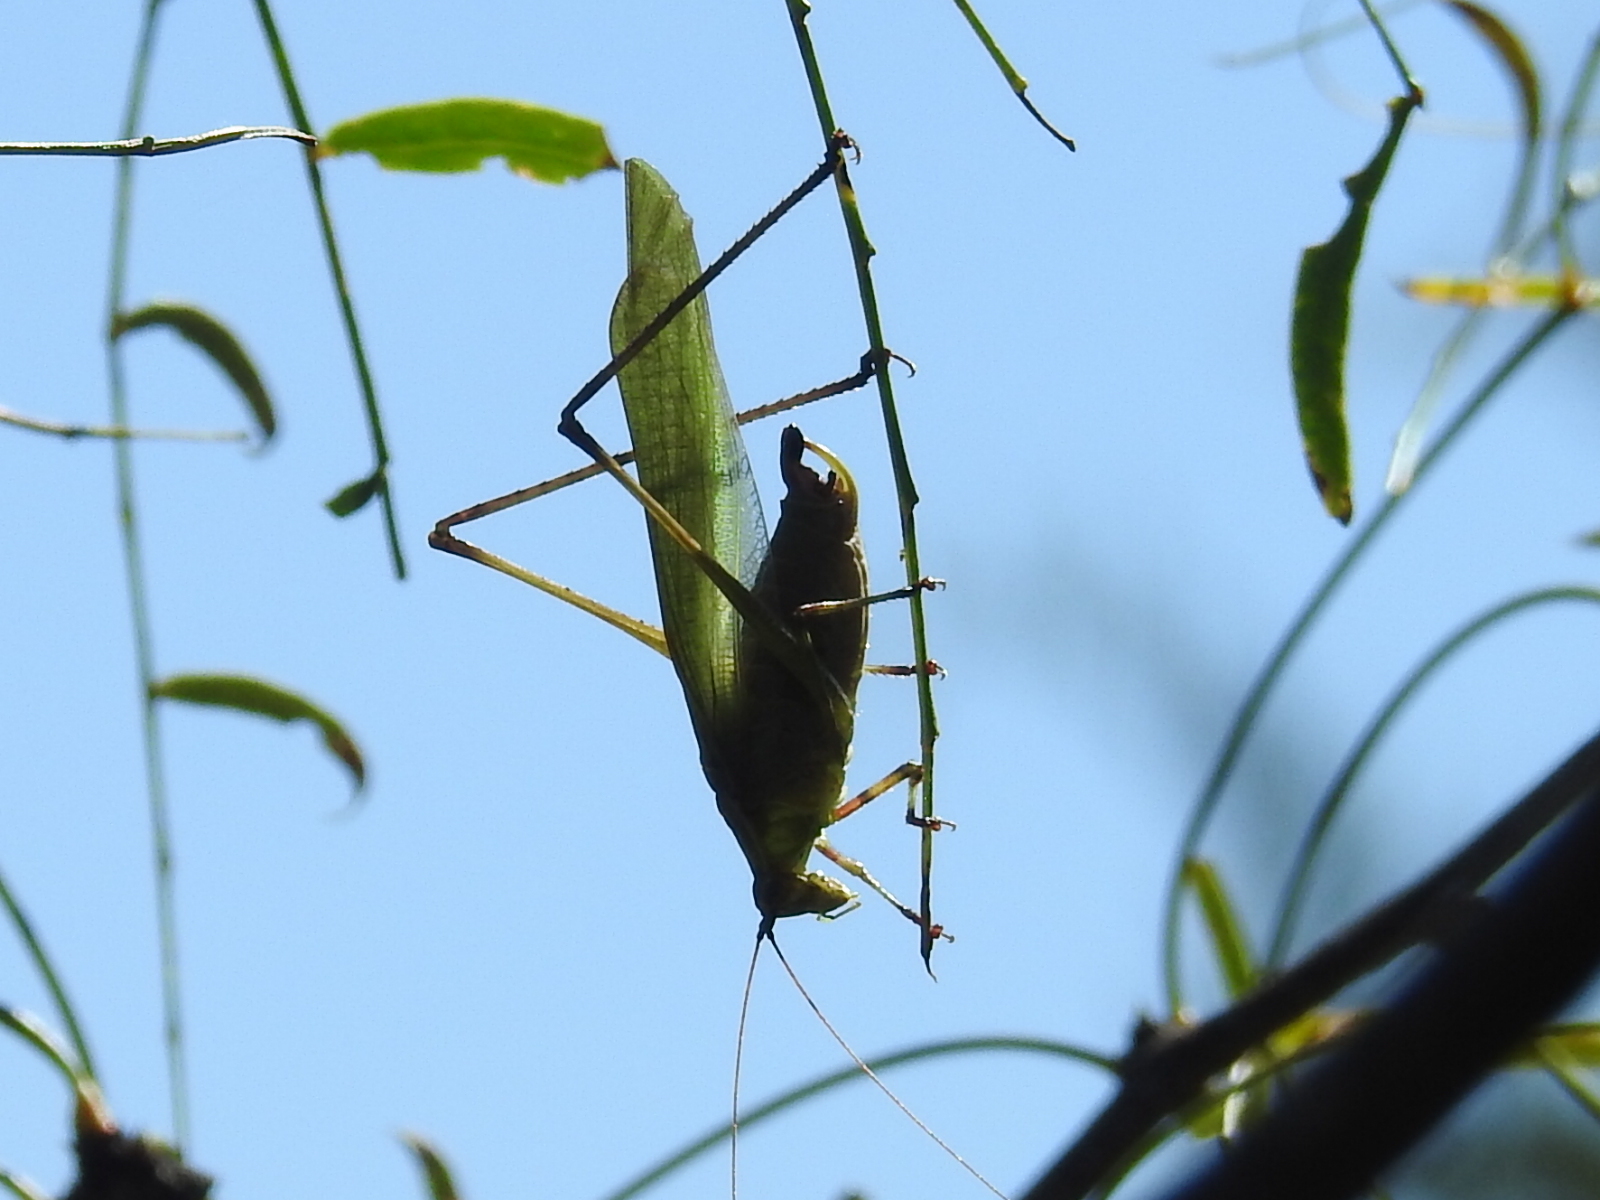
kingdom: Animalia
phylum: Arthropoda
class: Insecta
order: Orthoptera
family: Tettigoniidae
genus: Scudderia
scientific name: Scudderia furcata
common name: Fork-tailed bush katydid
